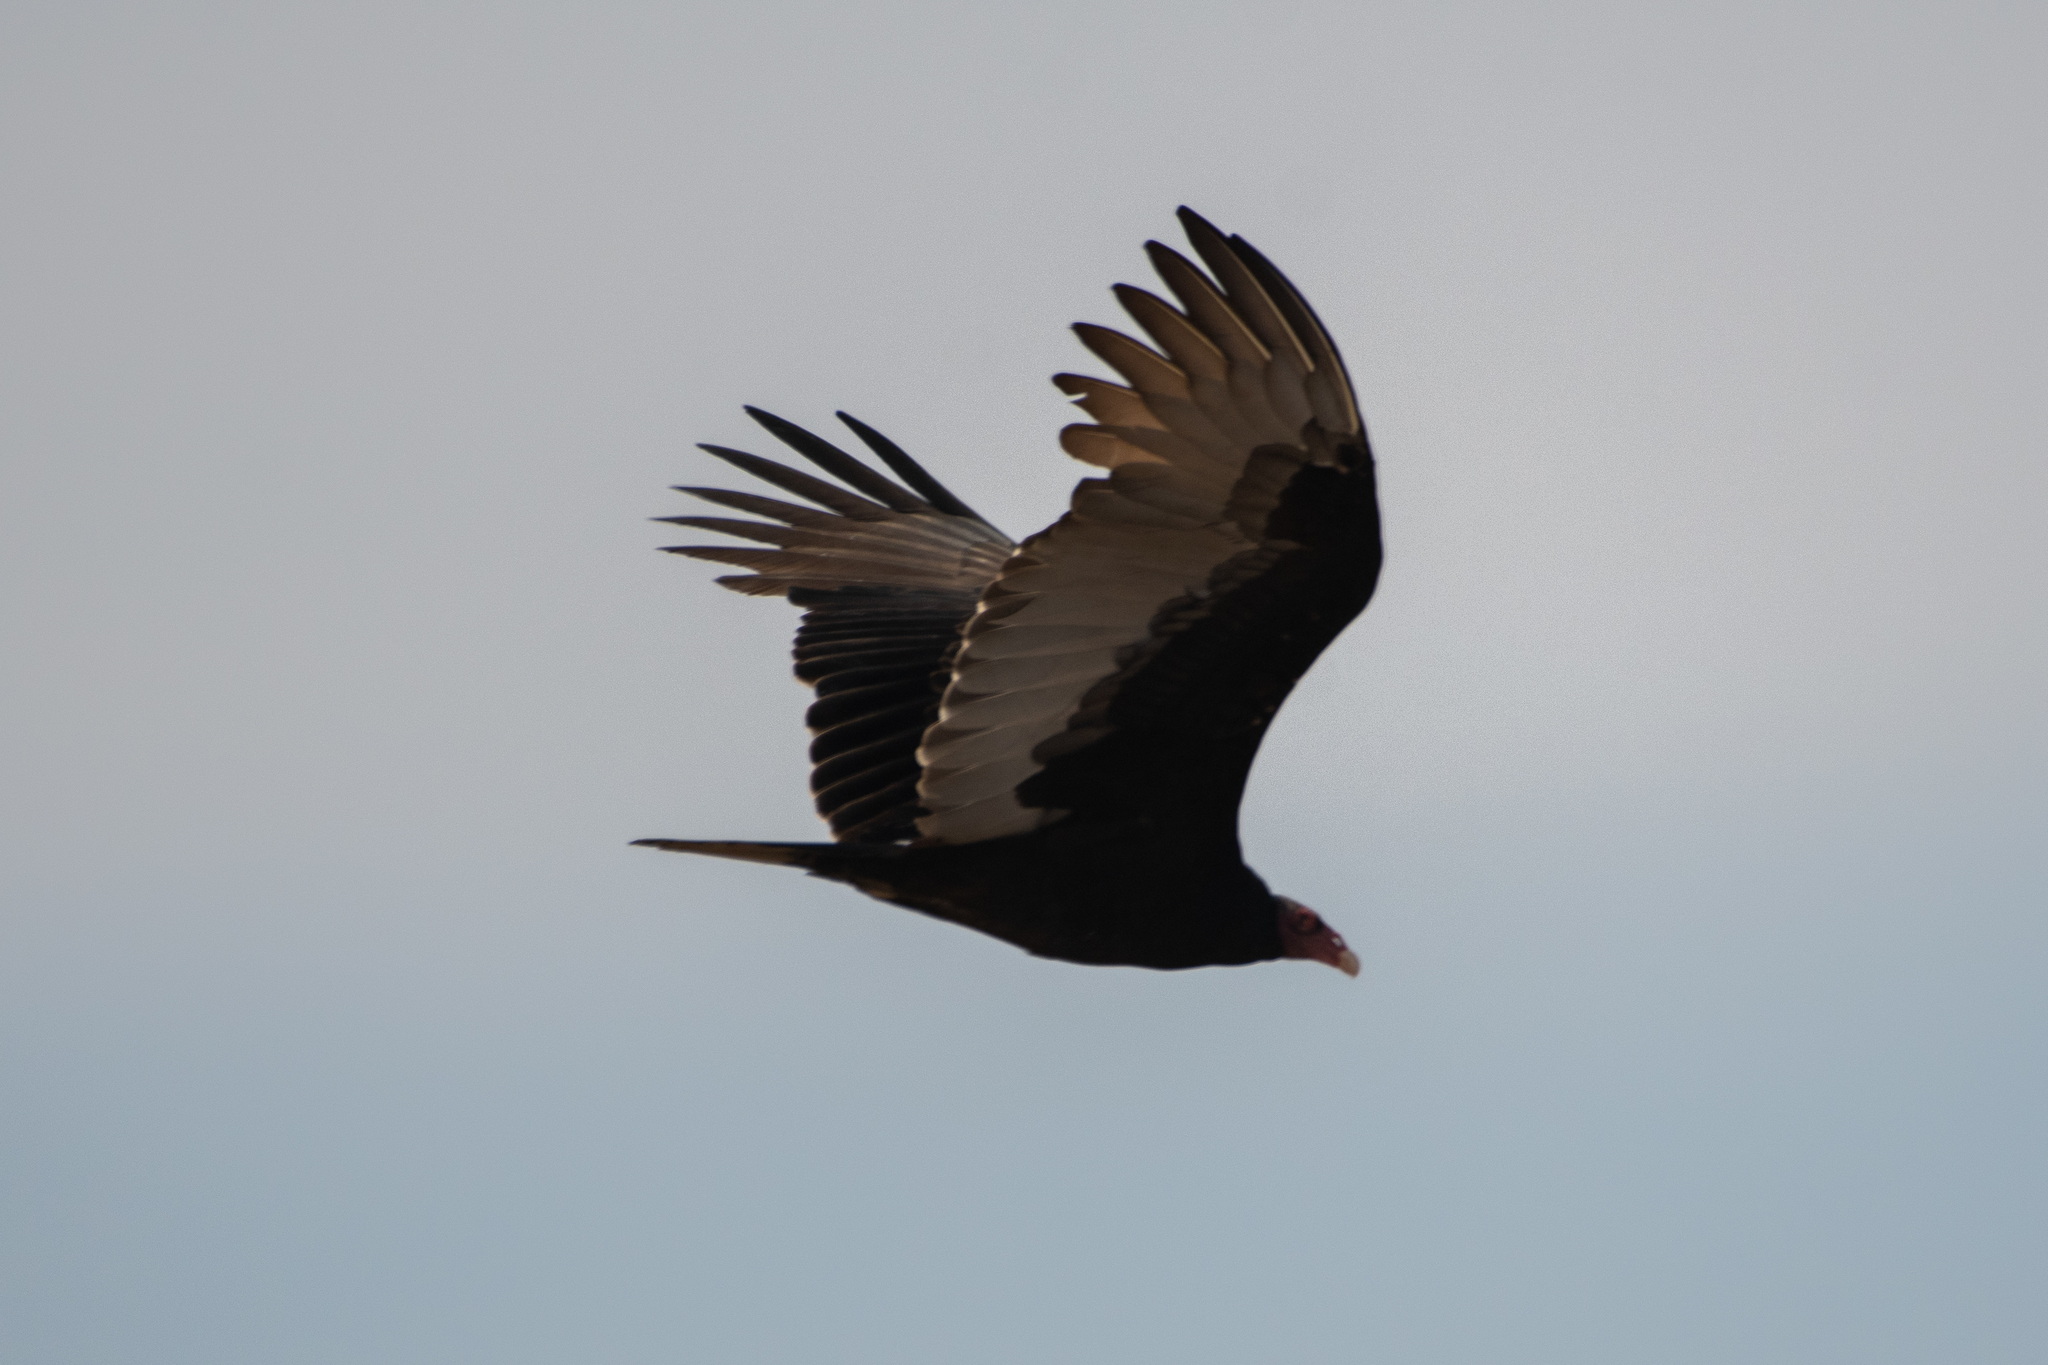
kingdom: Animalia
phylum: Chordata
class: Aves
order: Accipitriformes
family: Cathartidae
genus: Cathartes
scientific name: Cathartes aura
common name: Turkey vulture
